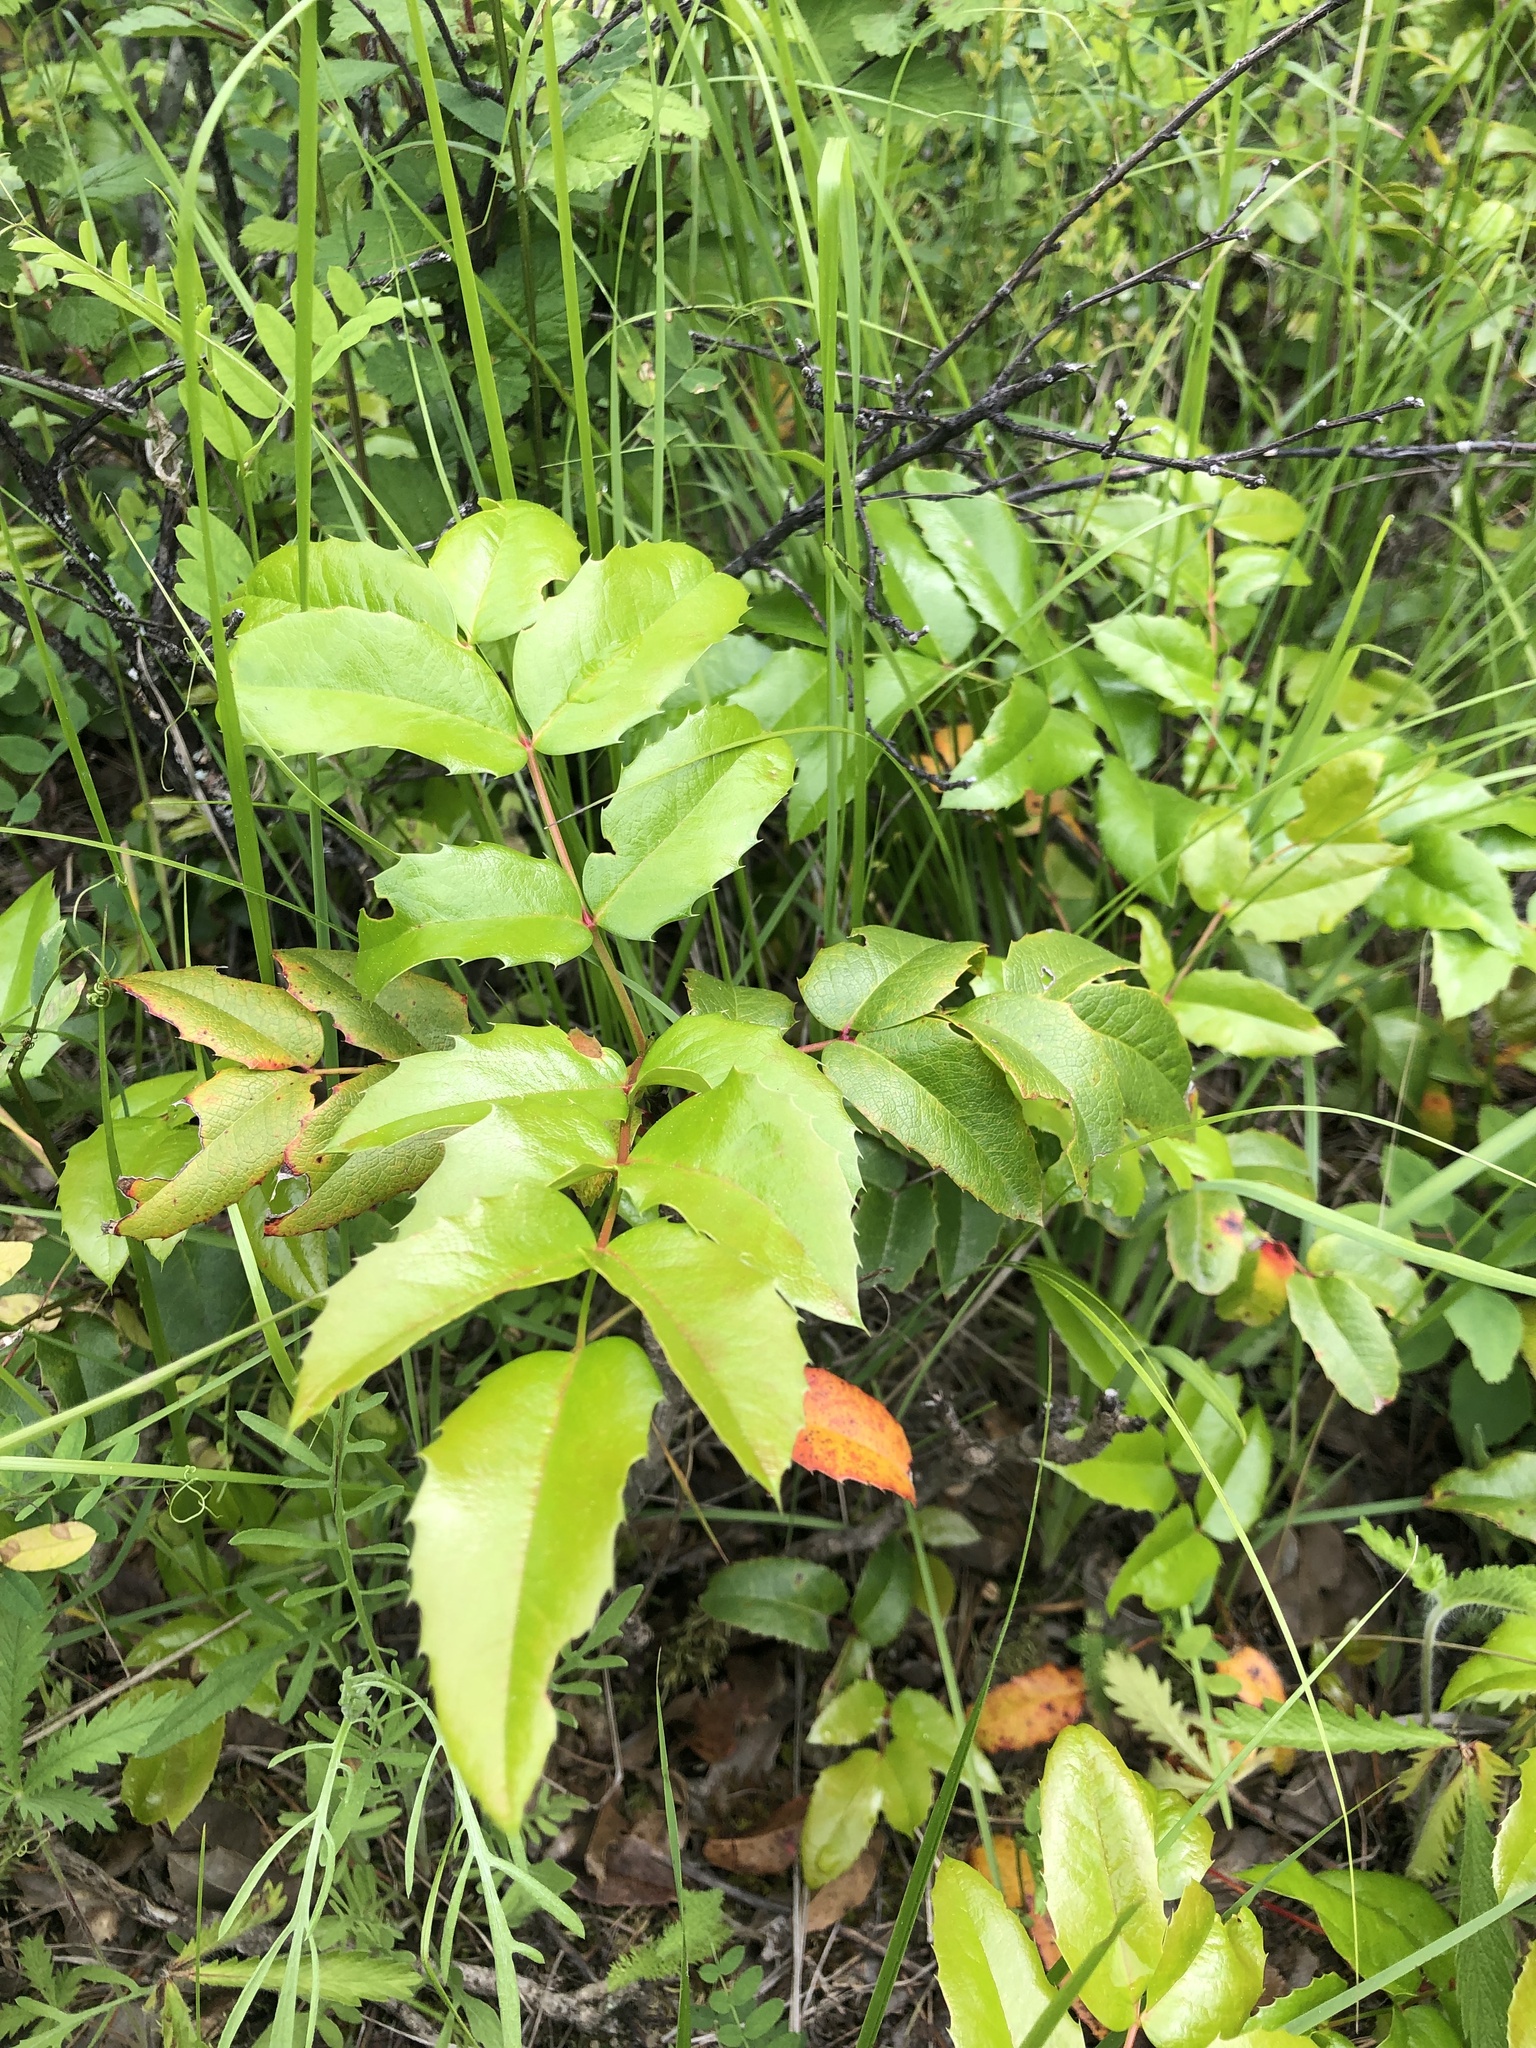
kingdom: Plantae
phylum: Tracheophyta
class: Magnoliopsida
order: Ranunculales
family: Berberidaceae
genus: Mahonia
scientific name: Mahonia aquifolium
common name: Oregon-grape
